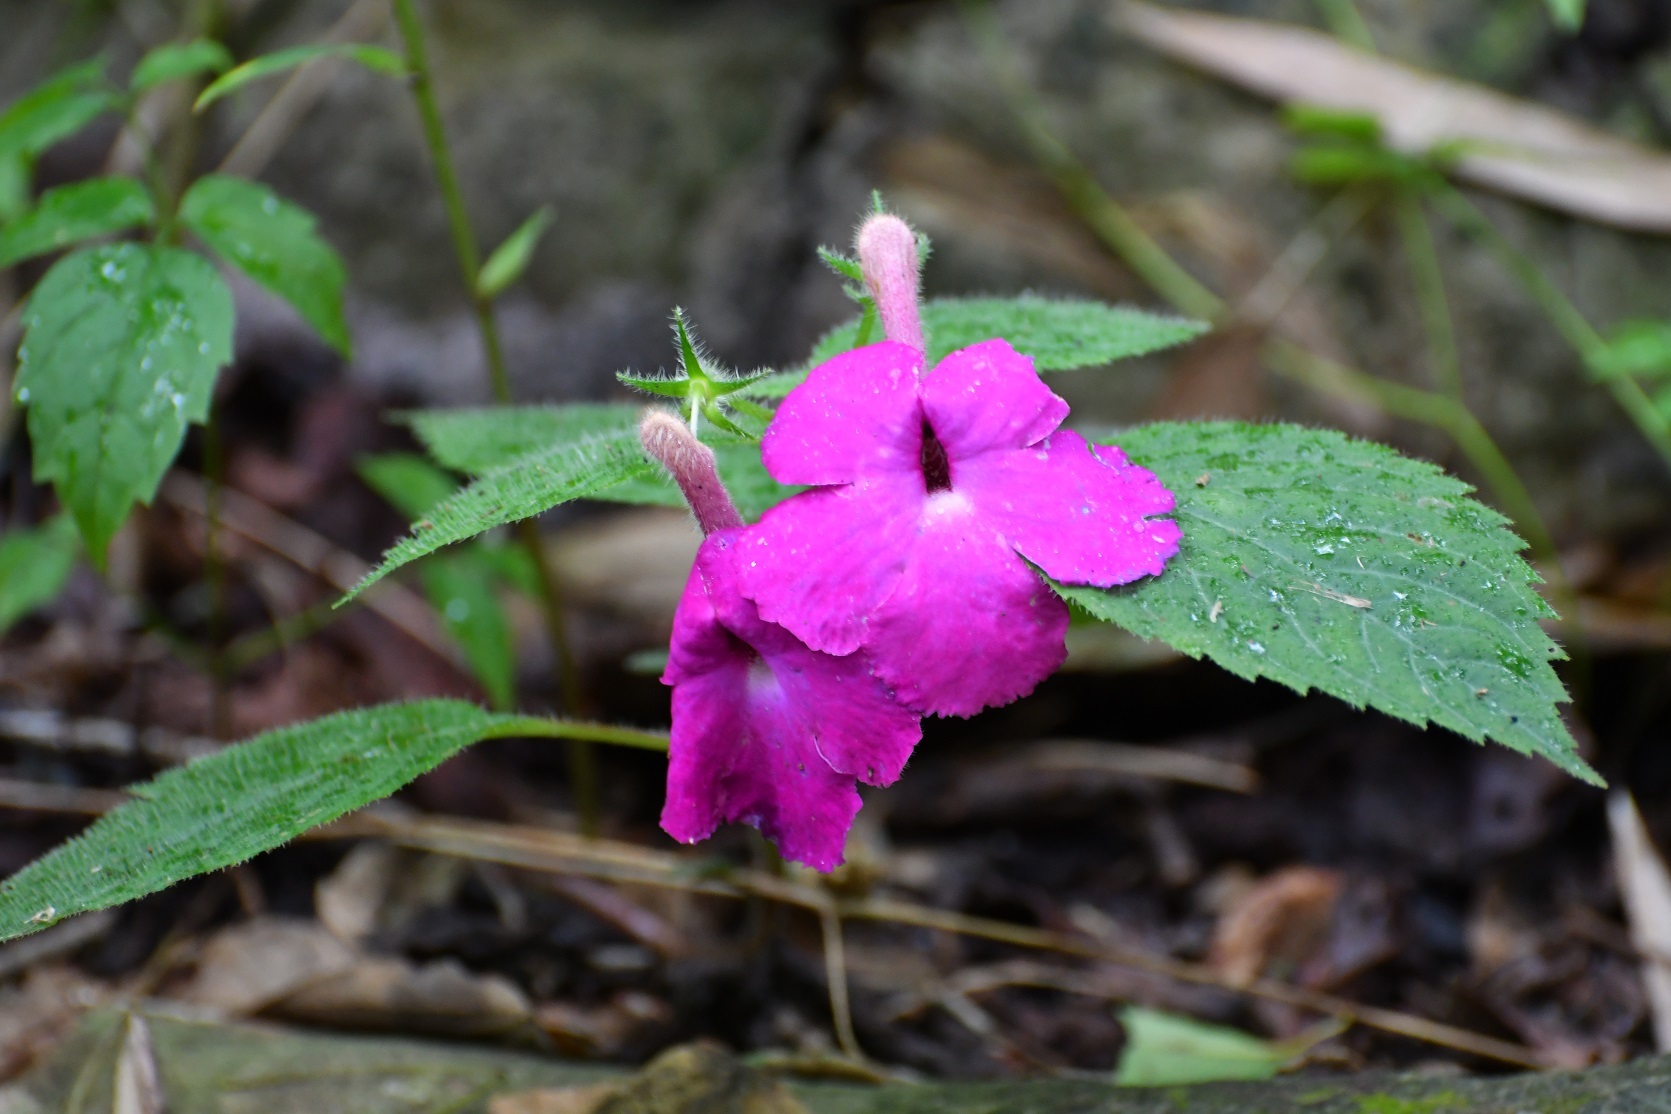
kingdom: Plantae
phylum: Tracheophyta
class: Magnoliopsida
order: Lamiales
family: Gesneriaceae
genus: Achimenes
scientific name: Achimenes grandiflora
